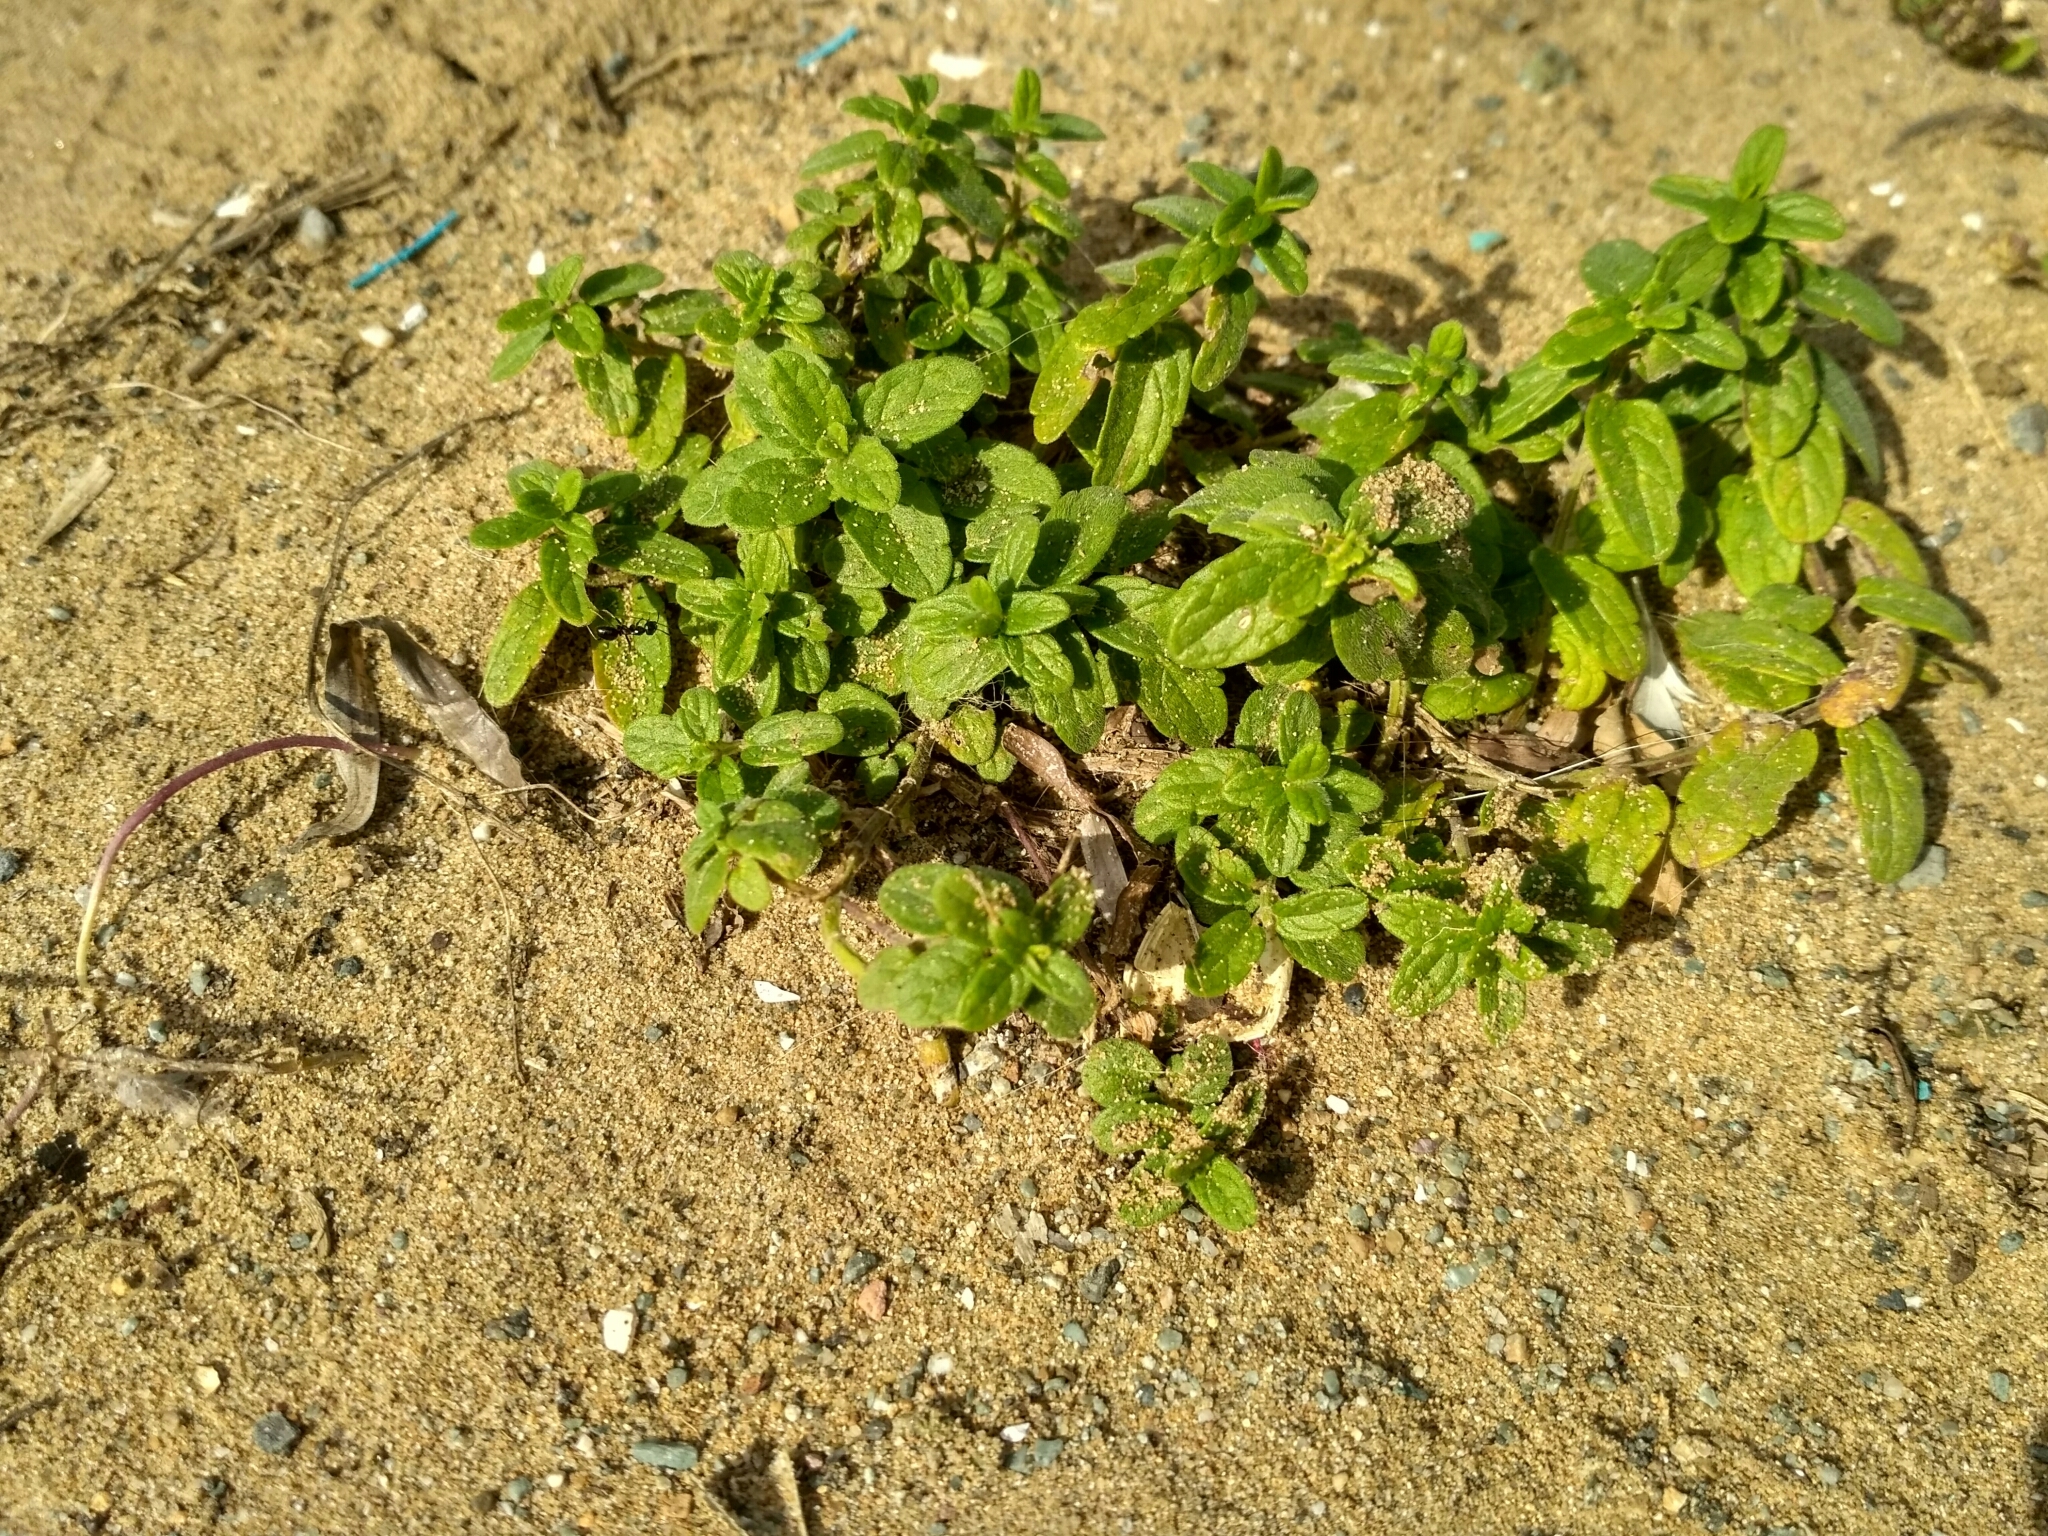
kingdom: Plantae
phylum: Tracheophyta
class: Magnoliopsida
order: Lamiales
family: Lamiaceae
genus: Scutellaria
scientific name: Scutellaria strigillosa
